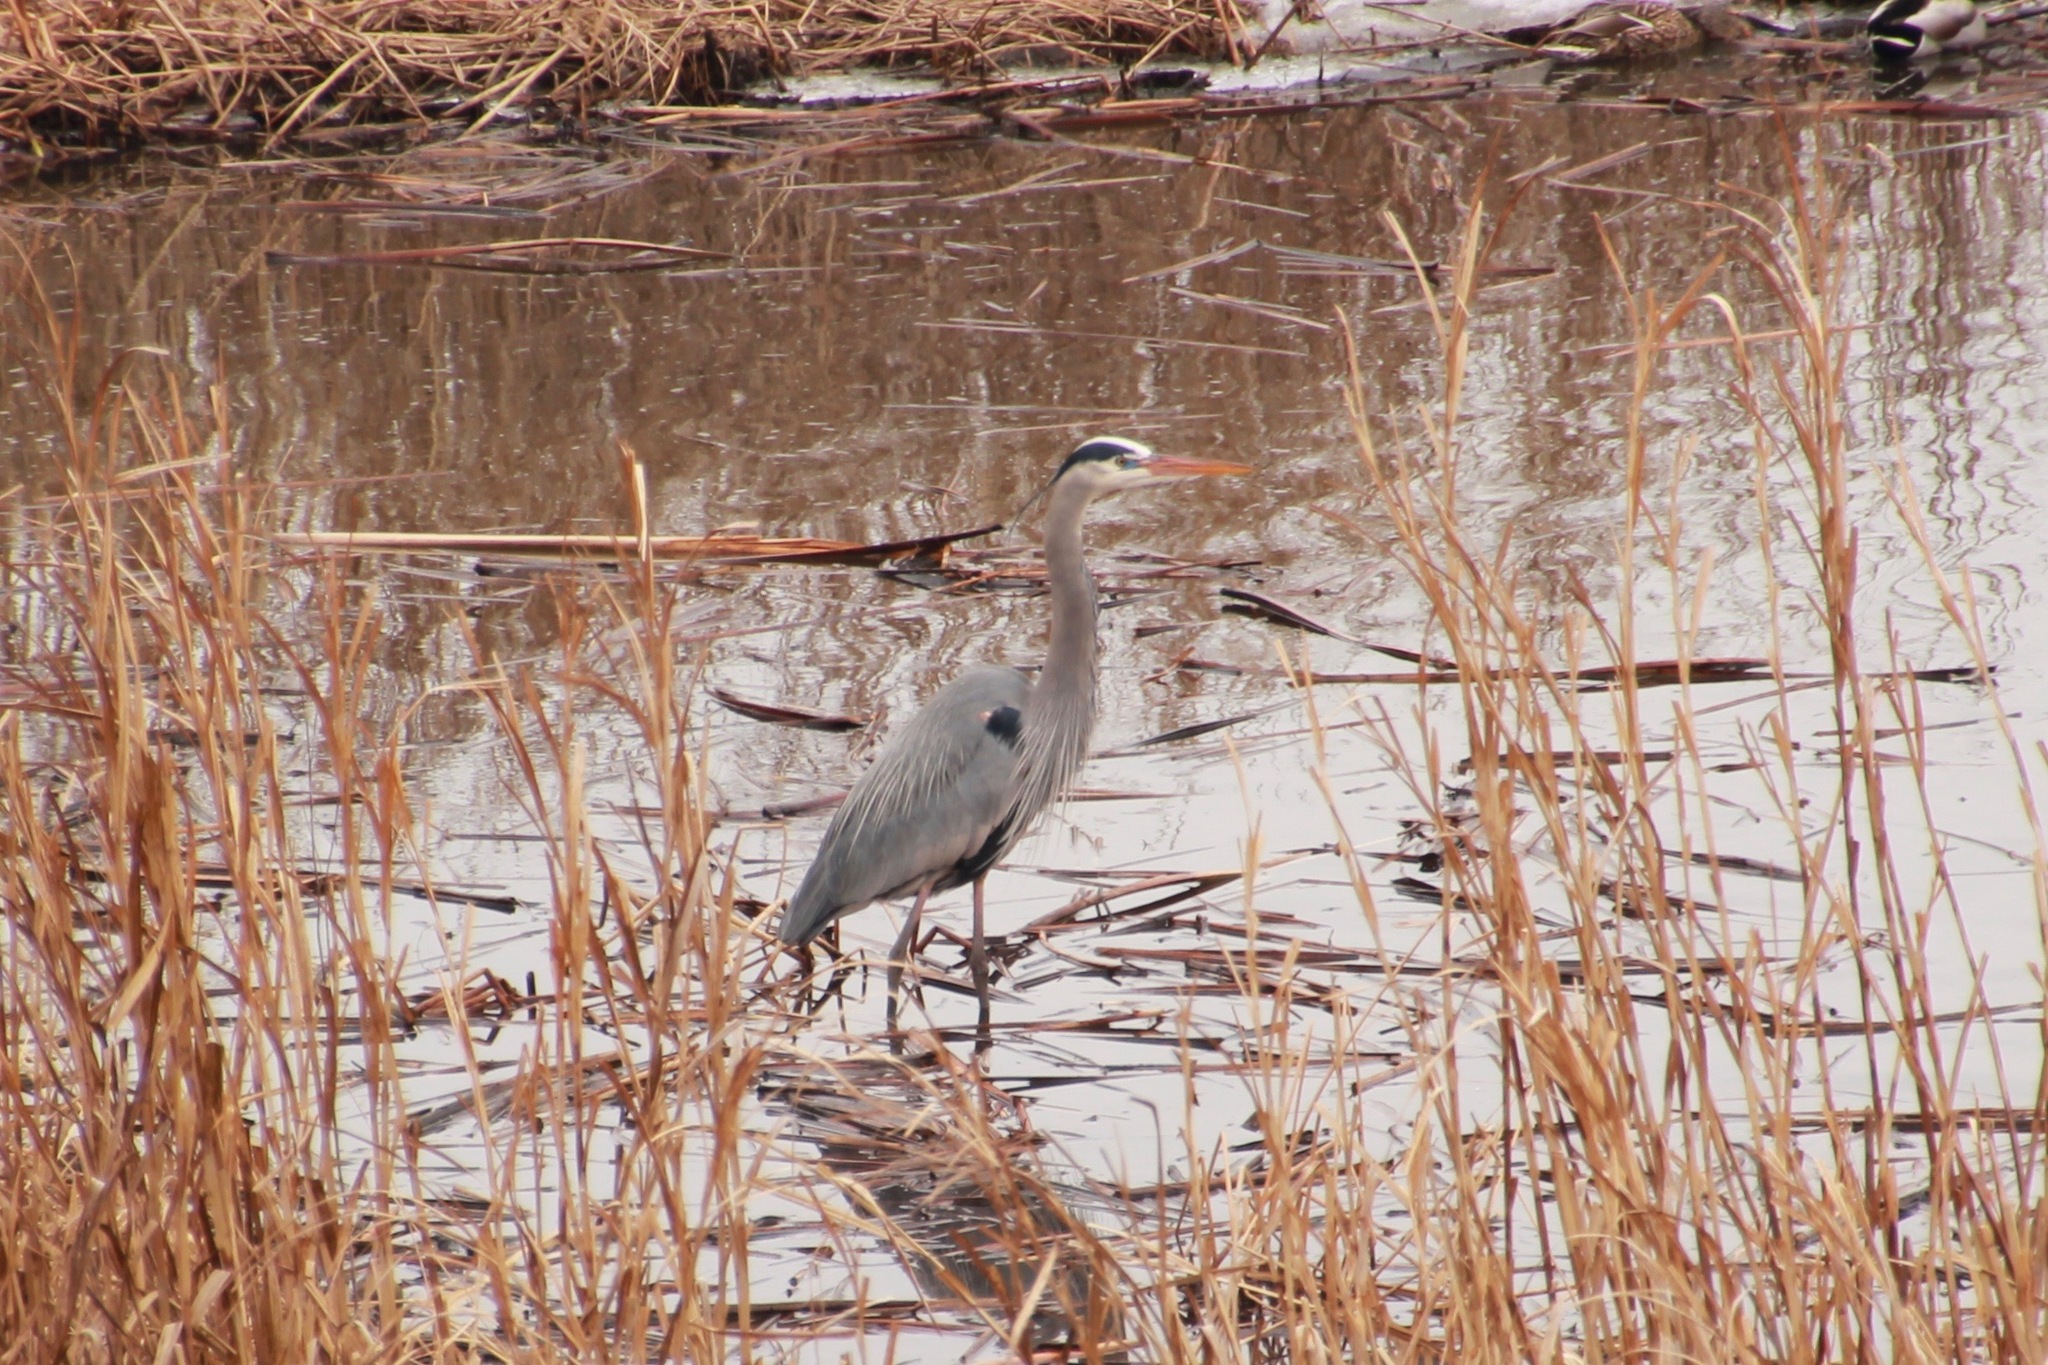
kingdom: Animalia
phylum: Chordata
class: Aves
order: Pelecaniformes
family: Ardeidae
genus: Ardea
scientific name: Ardea herodias
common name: Great blue heron
